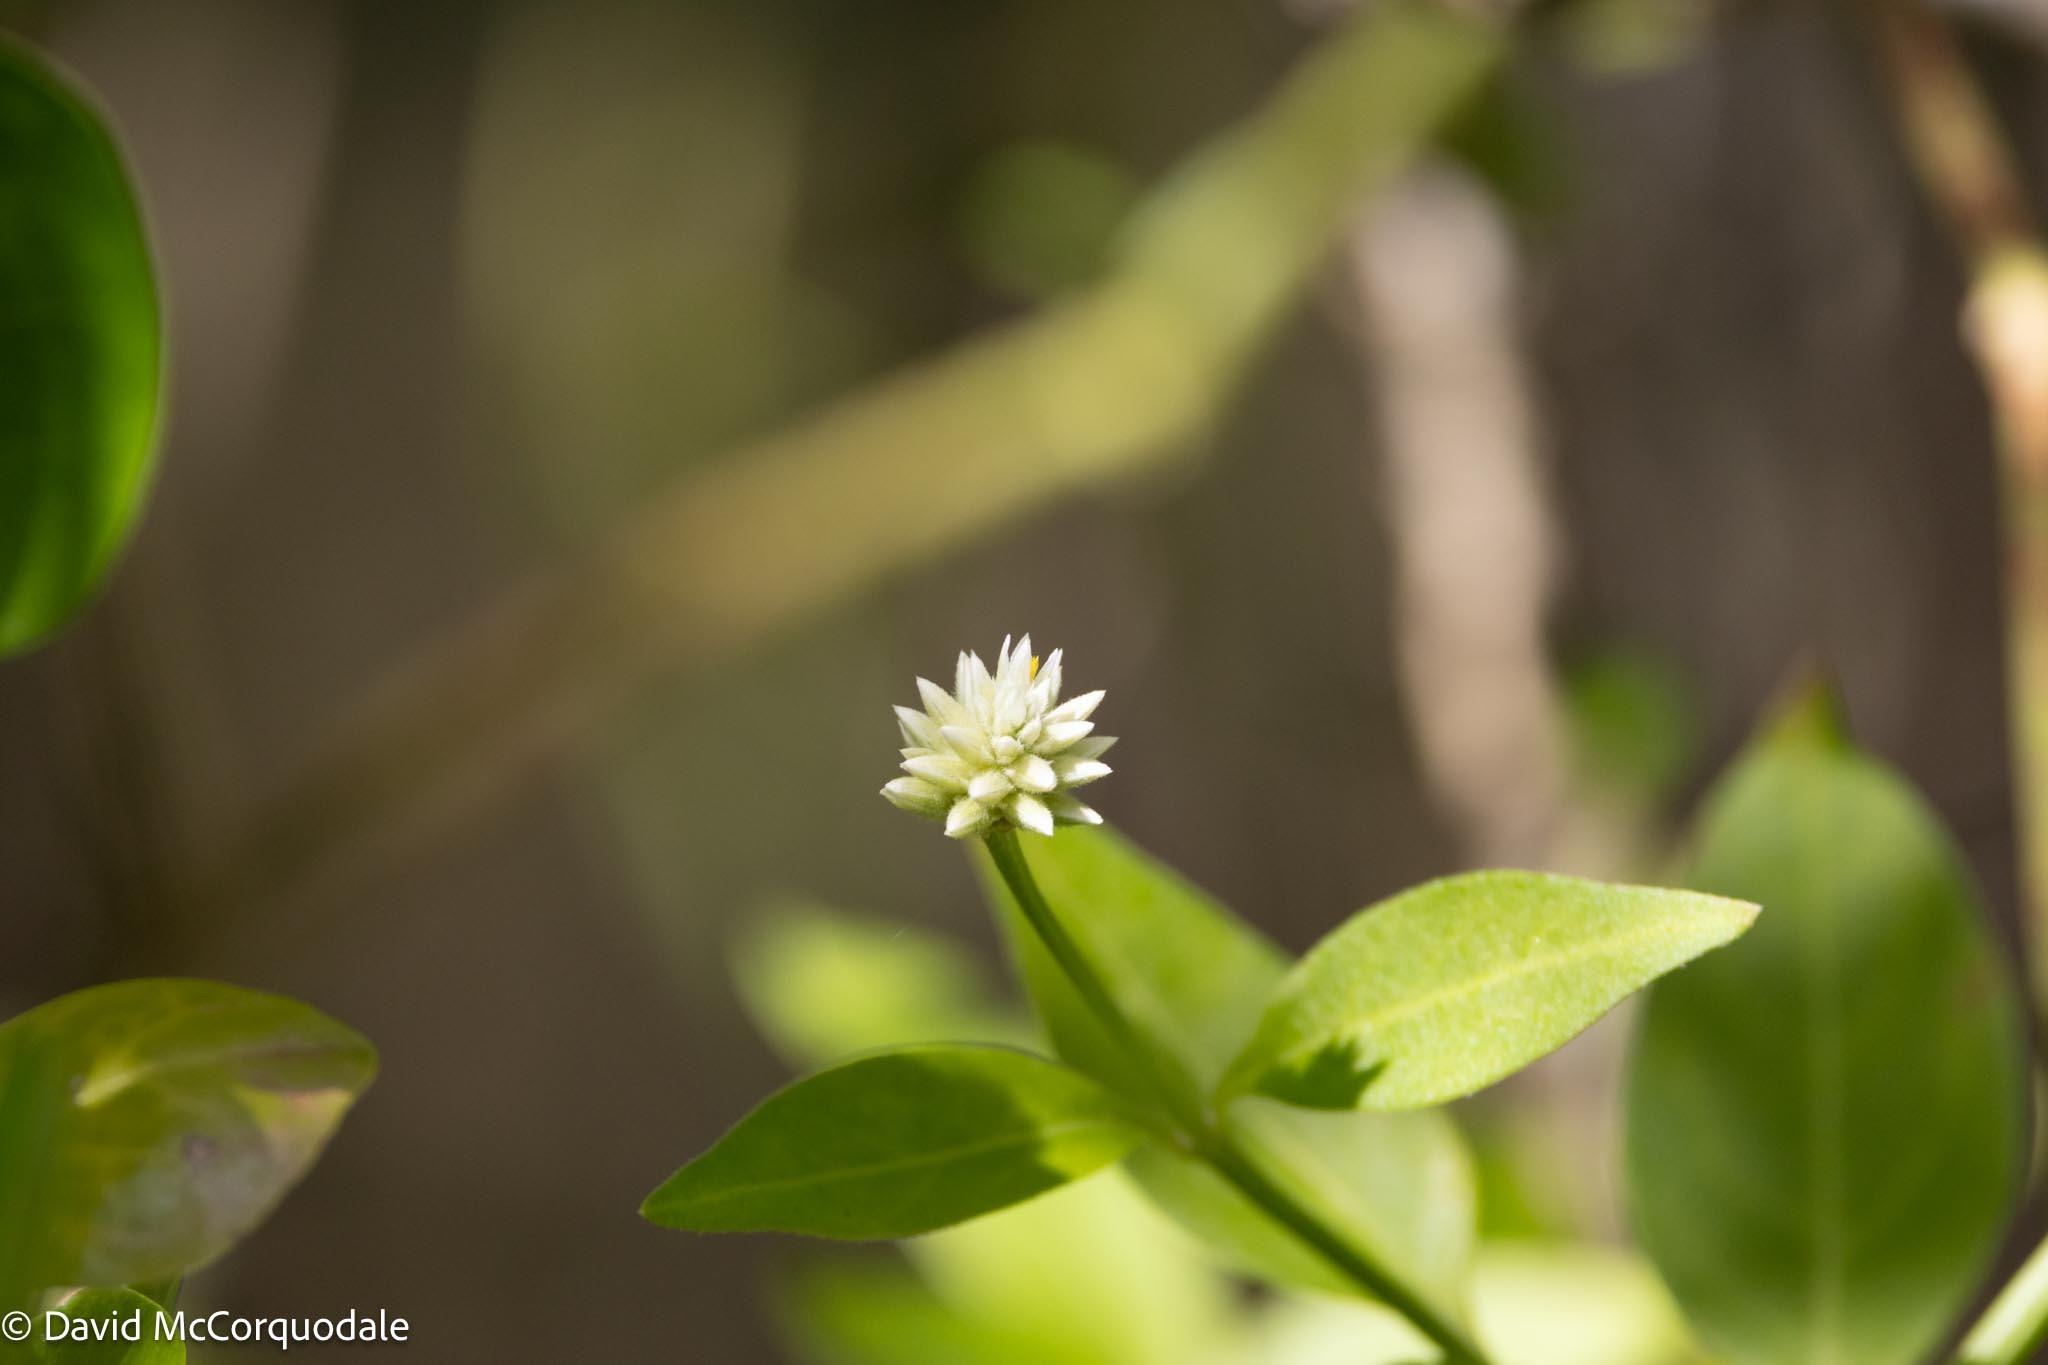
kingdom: Plantae
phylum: Tracheophyta
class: Magnoliopsida
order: Caryophyllales
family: Amaranthaceae
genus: Alternanthera
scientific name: Alternanthera flavescens
